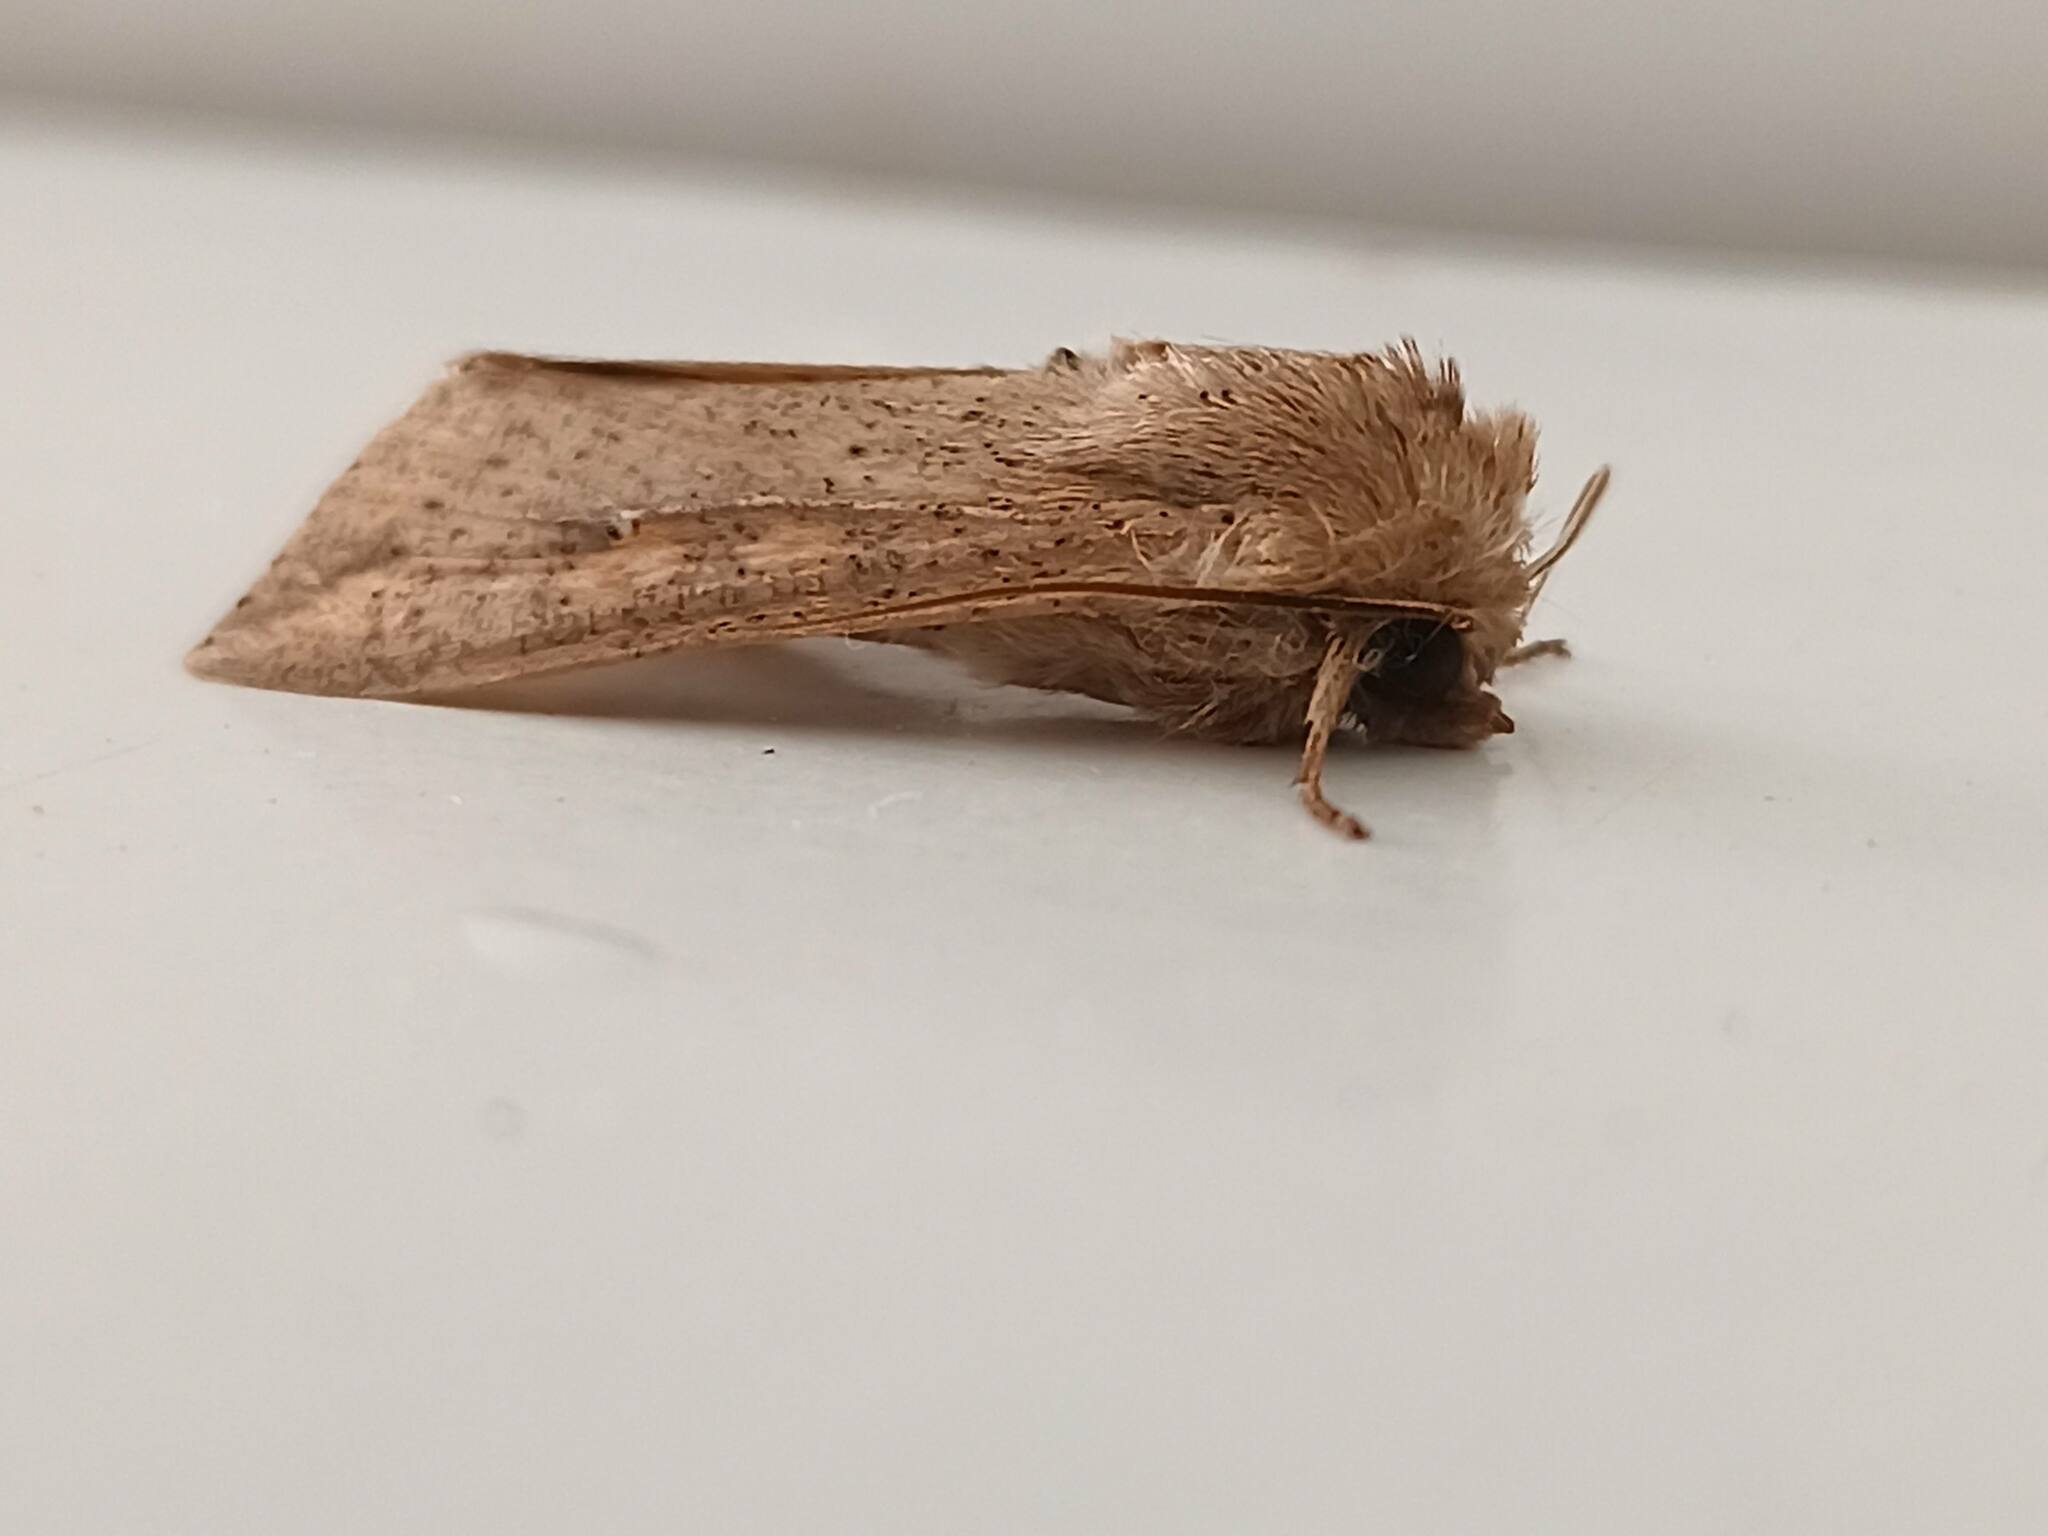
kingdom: Animalia
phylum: Arthropoda
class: Insecta
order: Lepidoptera
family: Noctuidae
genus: Mythimna
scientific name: Mythimna unipuncta
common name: White-speck
